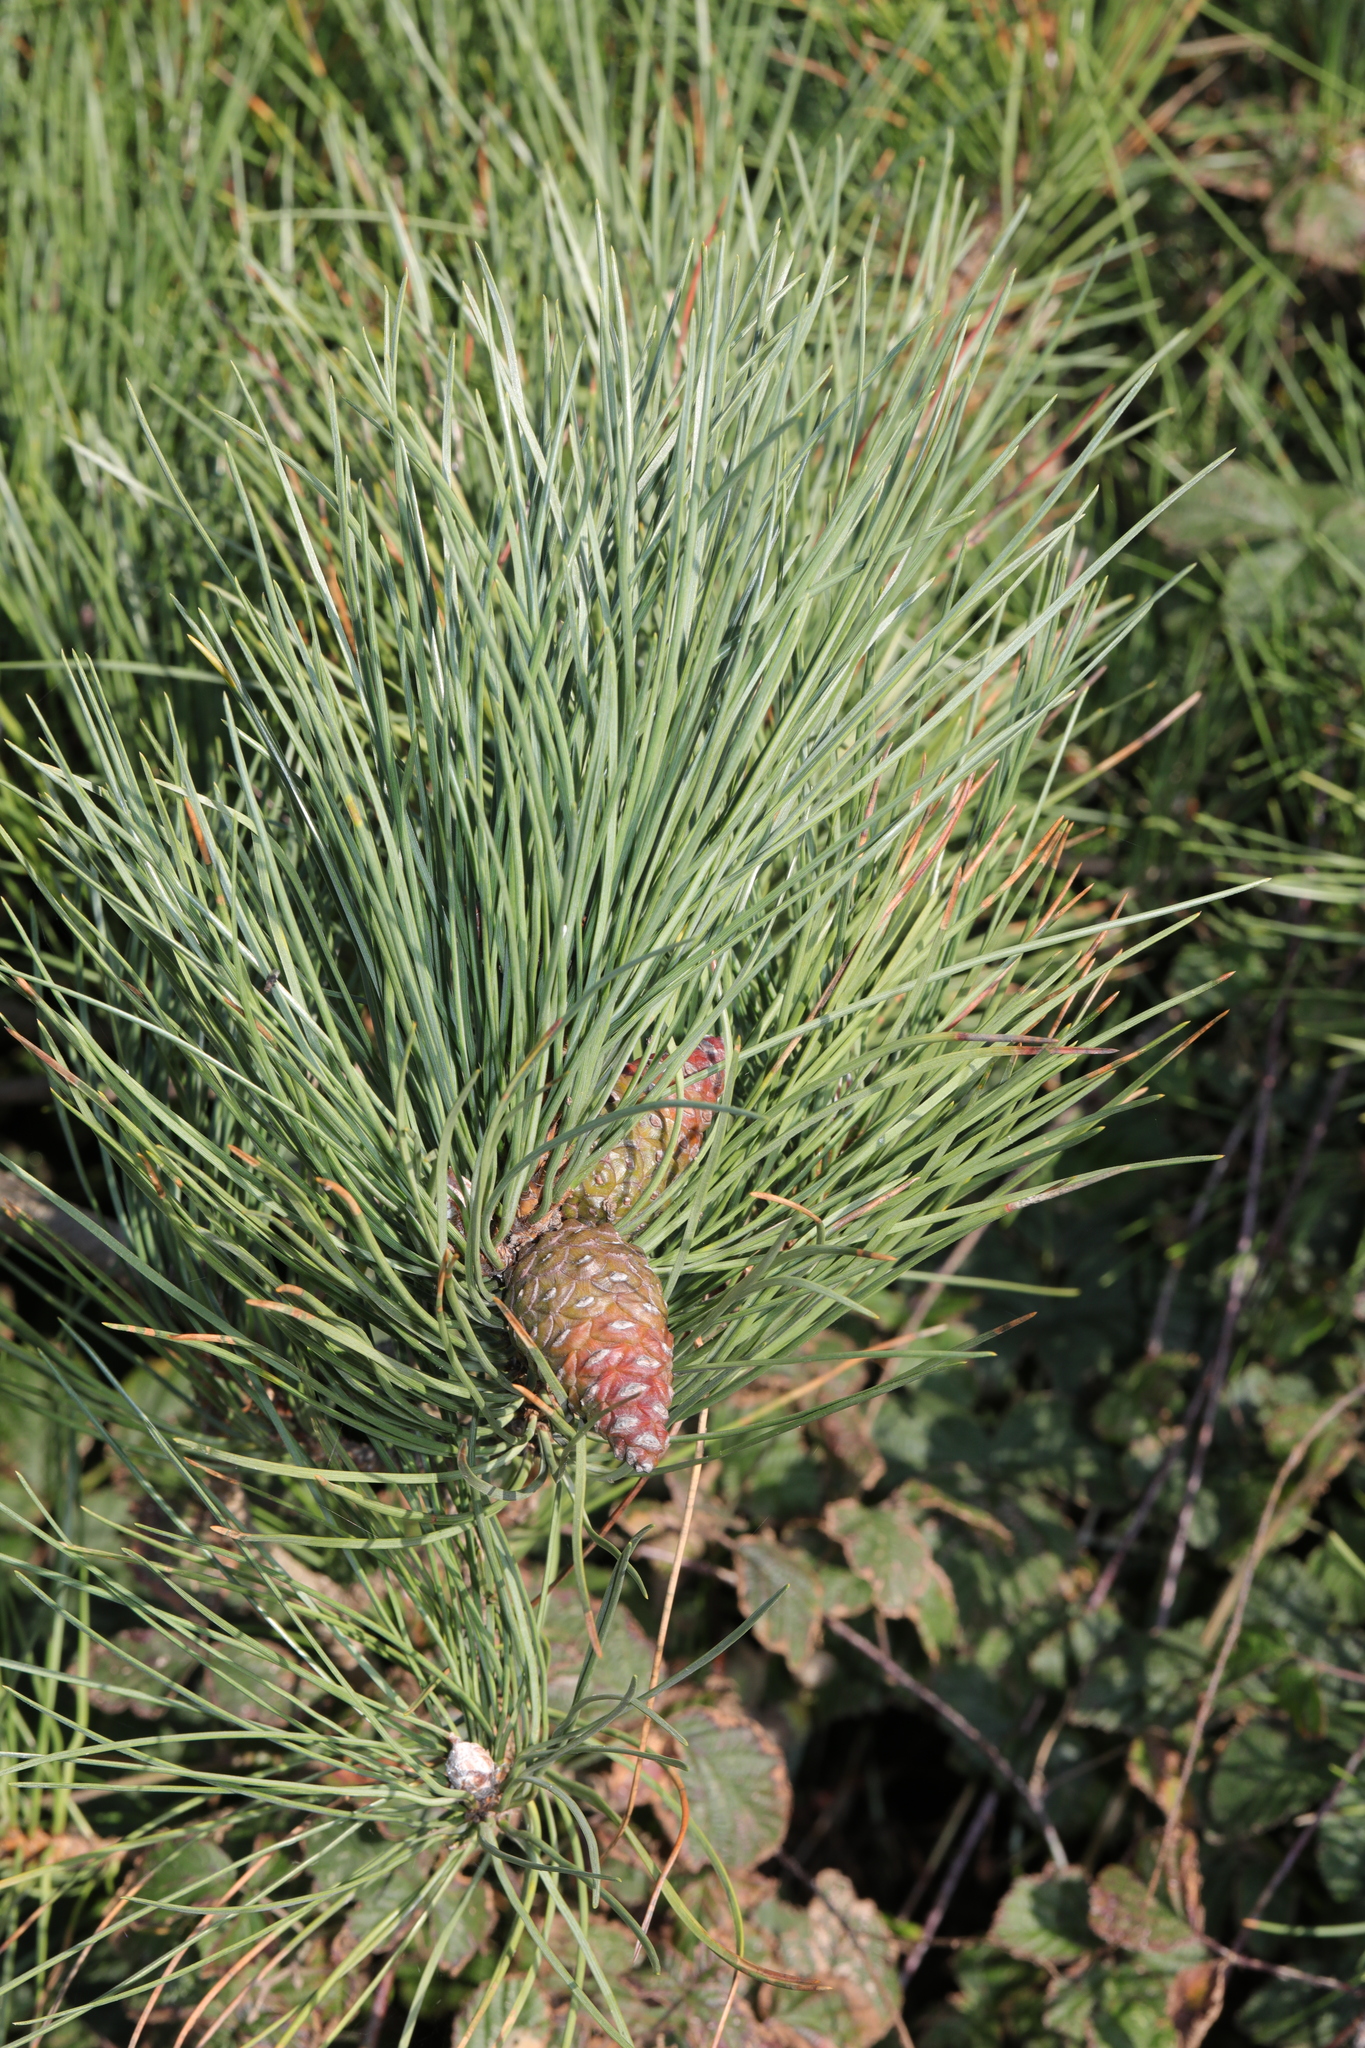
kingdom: Plantae
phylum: Tracheophyta
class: Pinopsida
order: Pinales
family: Pinaceae
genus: Pinus
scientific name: Pinus nigra
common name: Austrian pine
